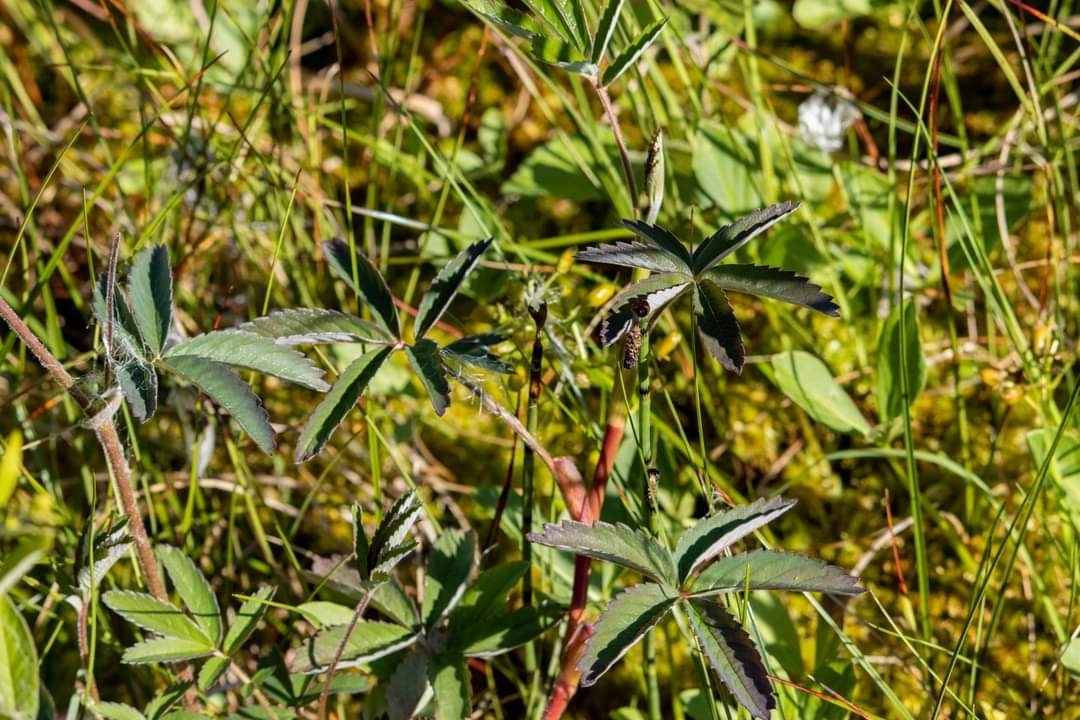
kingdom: Plantae
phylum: Tracheophyta
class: Magnoliopsida
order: Rosales
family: Rosaceae
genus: Comarum
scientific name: Comarum palustre
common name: Marsh cinquefoil
